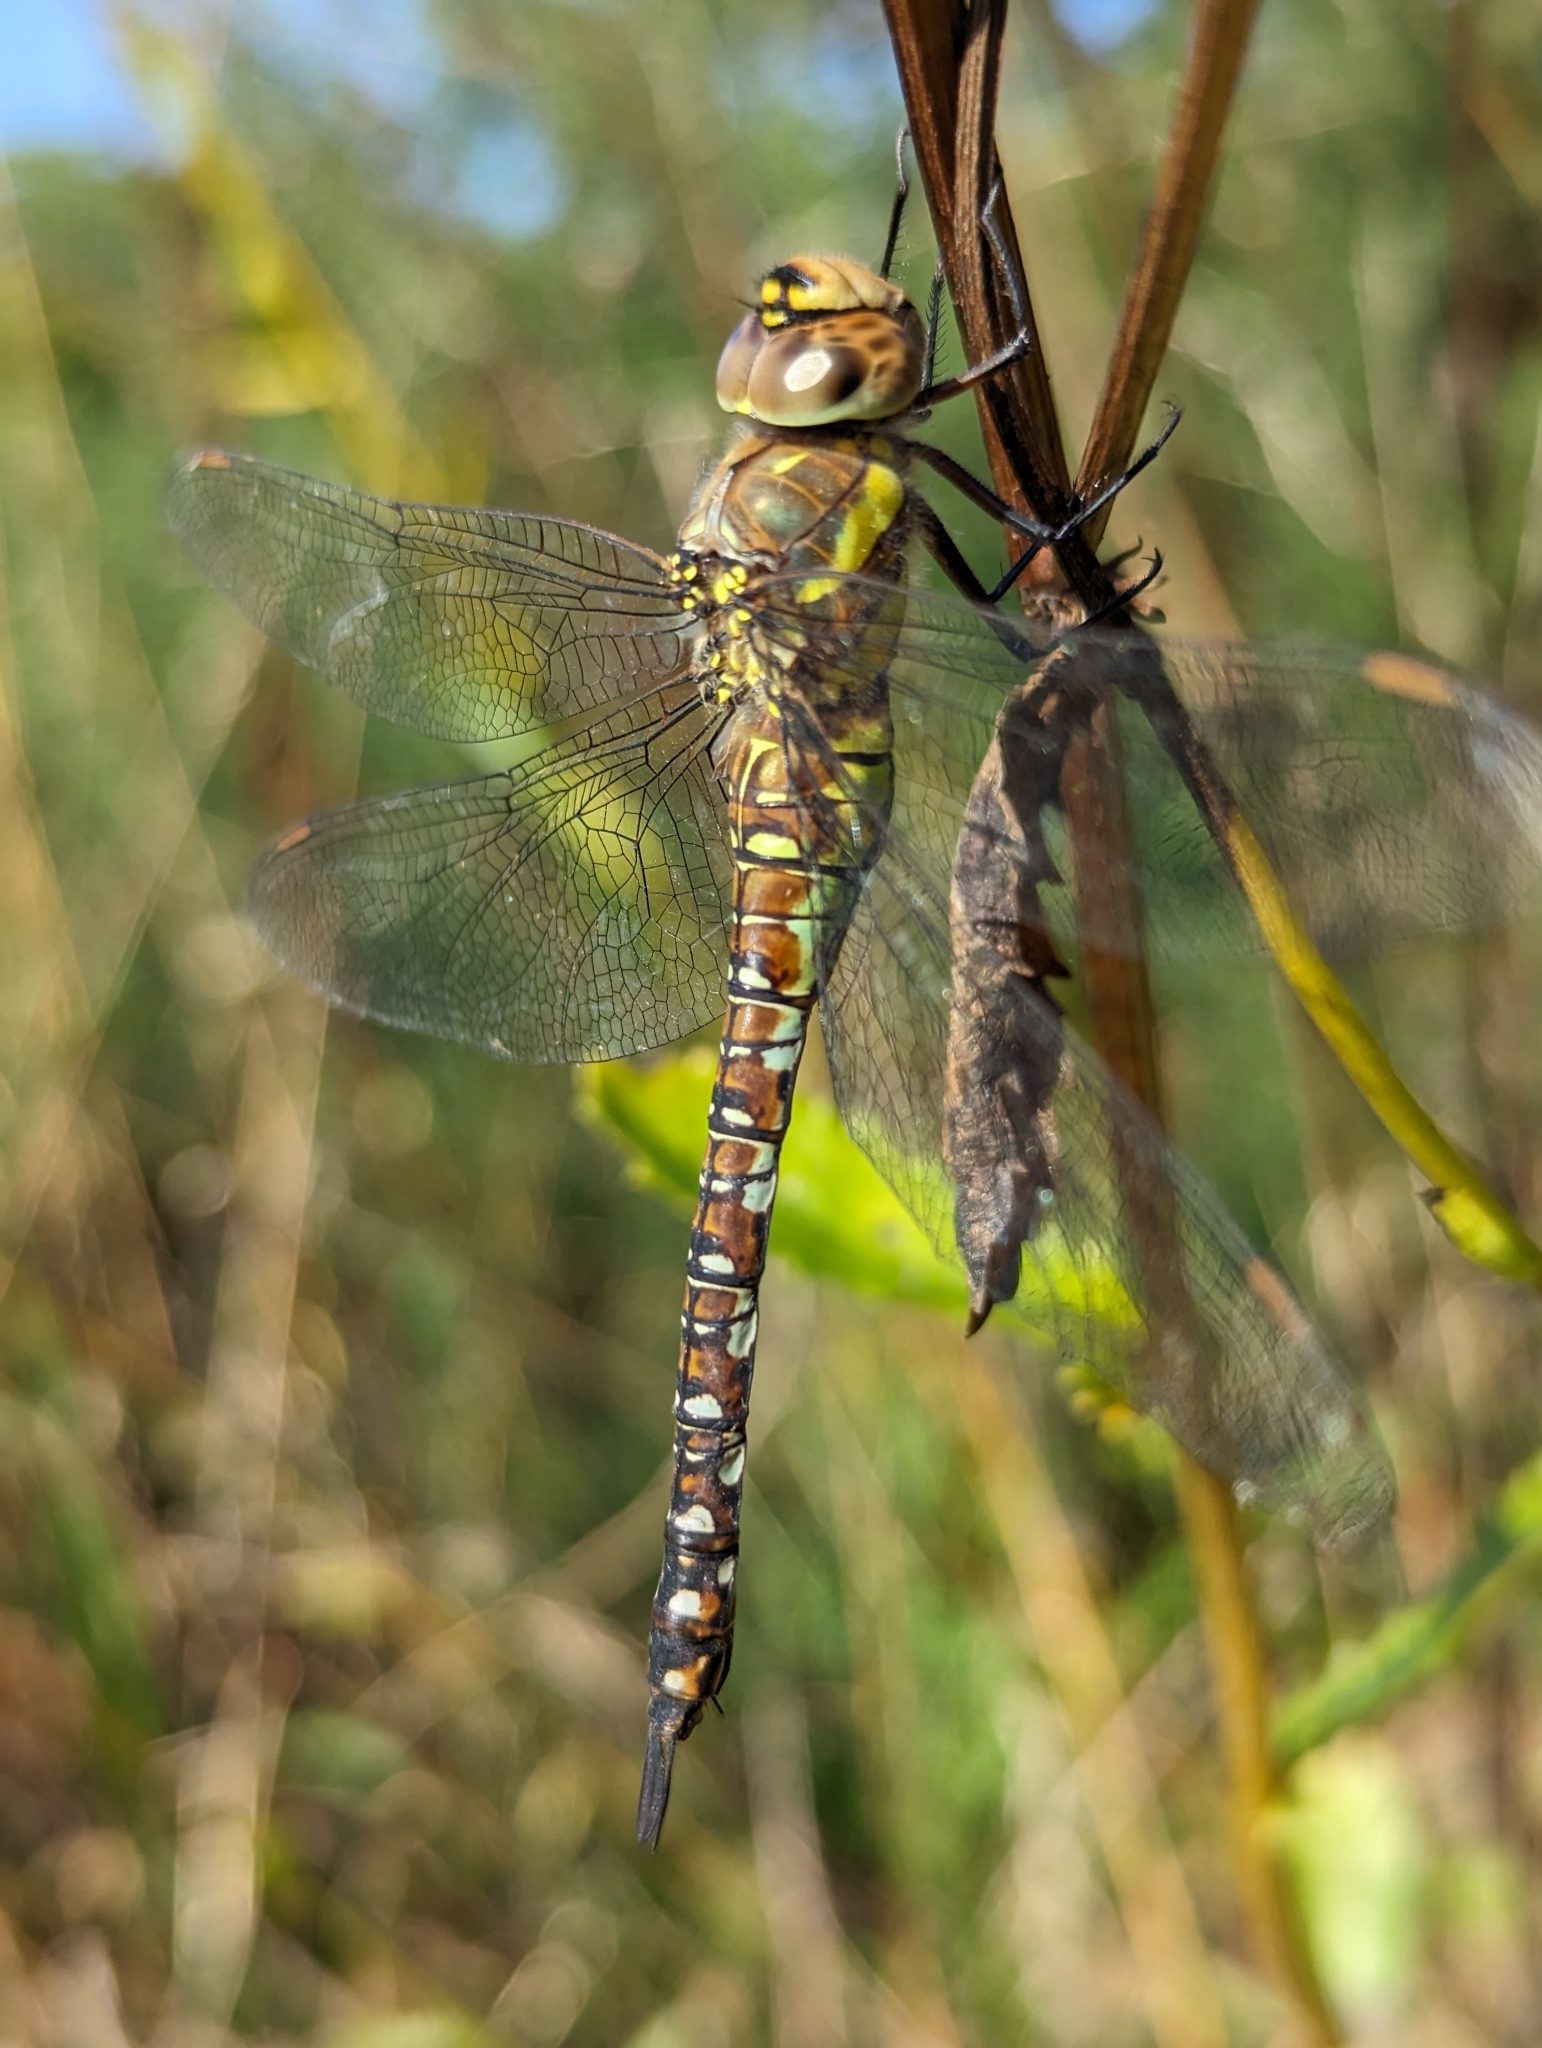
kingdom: Animalia
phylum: Arthropoda
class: Insecta
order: Odonata
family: Aeshnidae
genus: Aeshna
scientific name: Aeshna mixta
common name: Migrant hawker
